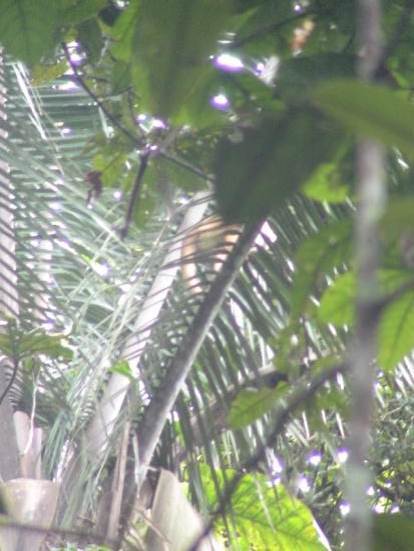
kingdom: Animalia
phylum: Chordata
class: Mammalia
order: Primates
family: Cebidae
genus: Cebus
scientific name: Cebus unicolor
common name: Spix's white-fronted capuchin
